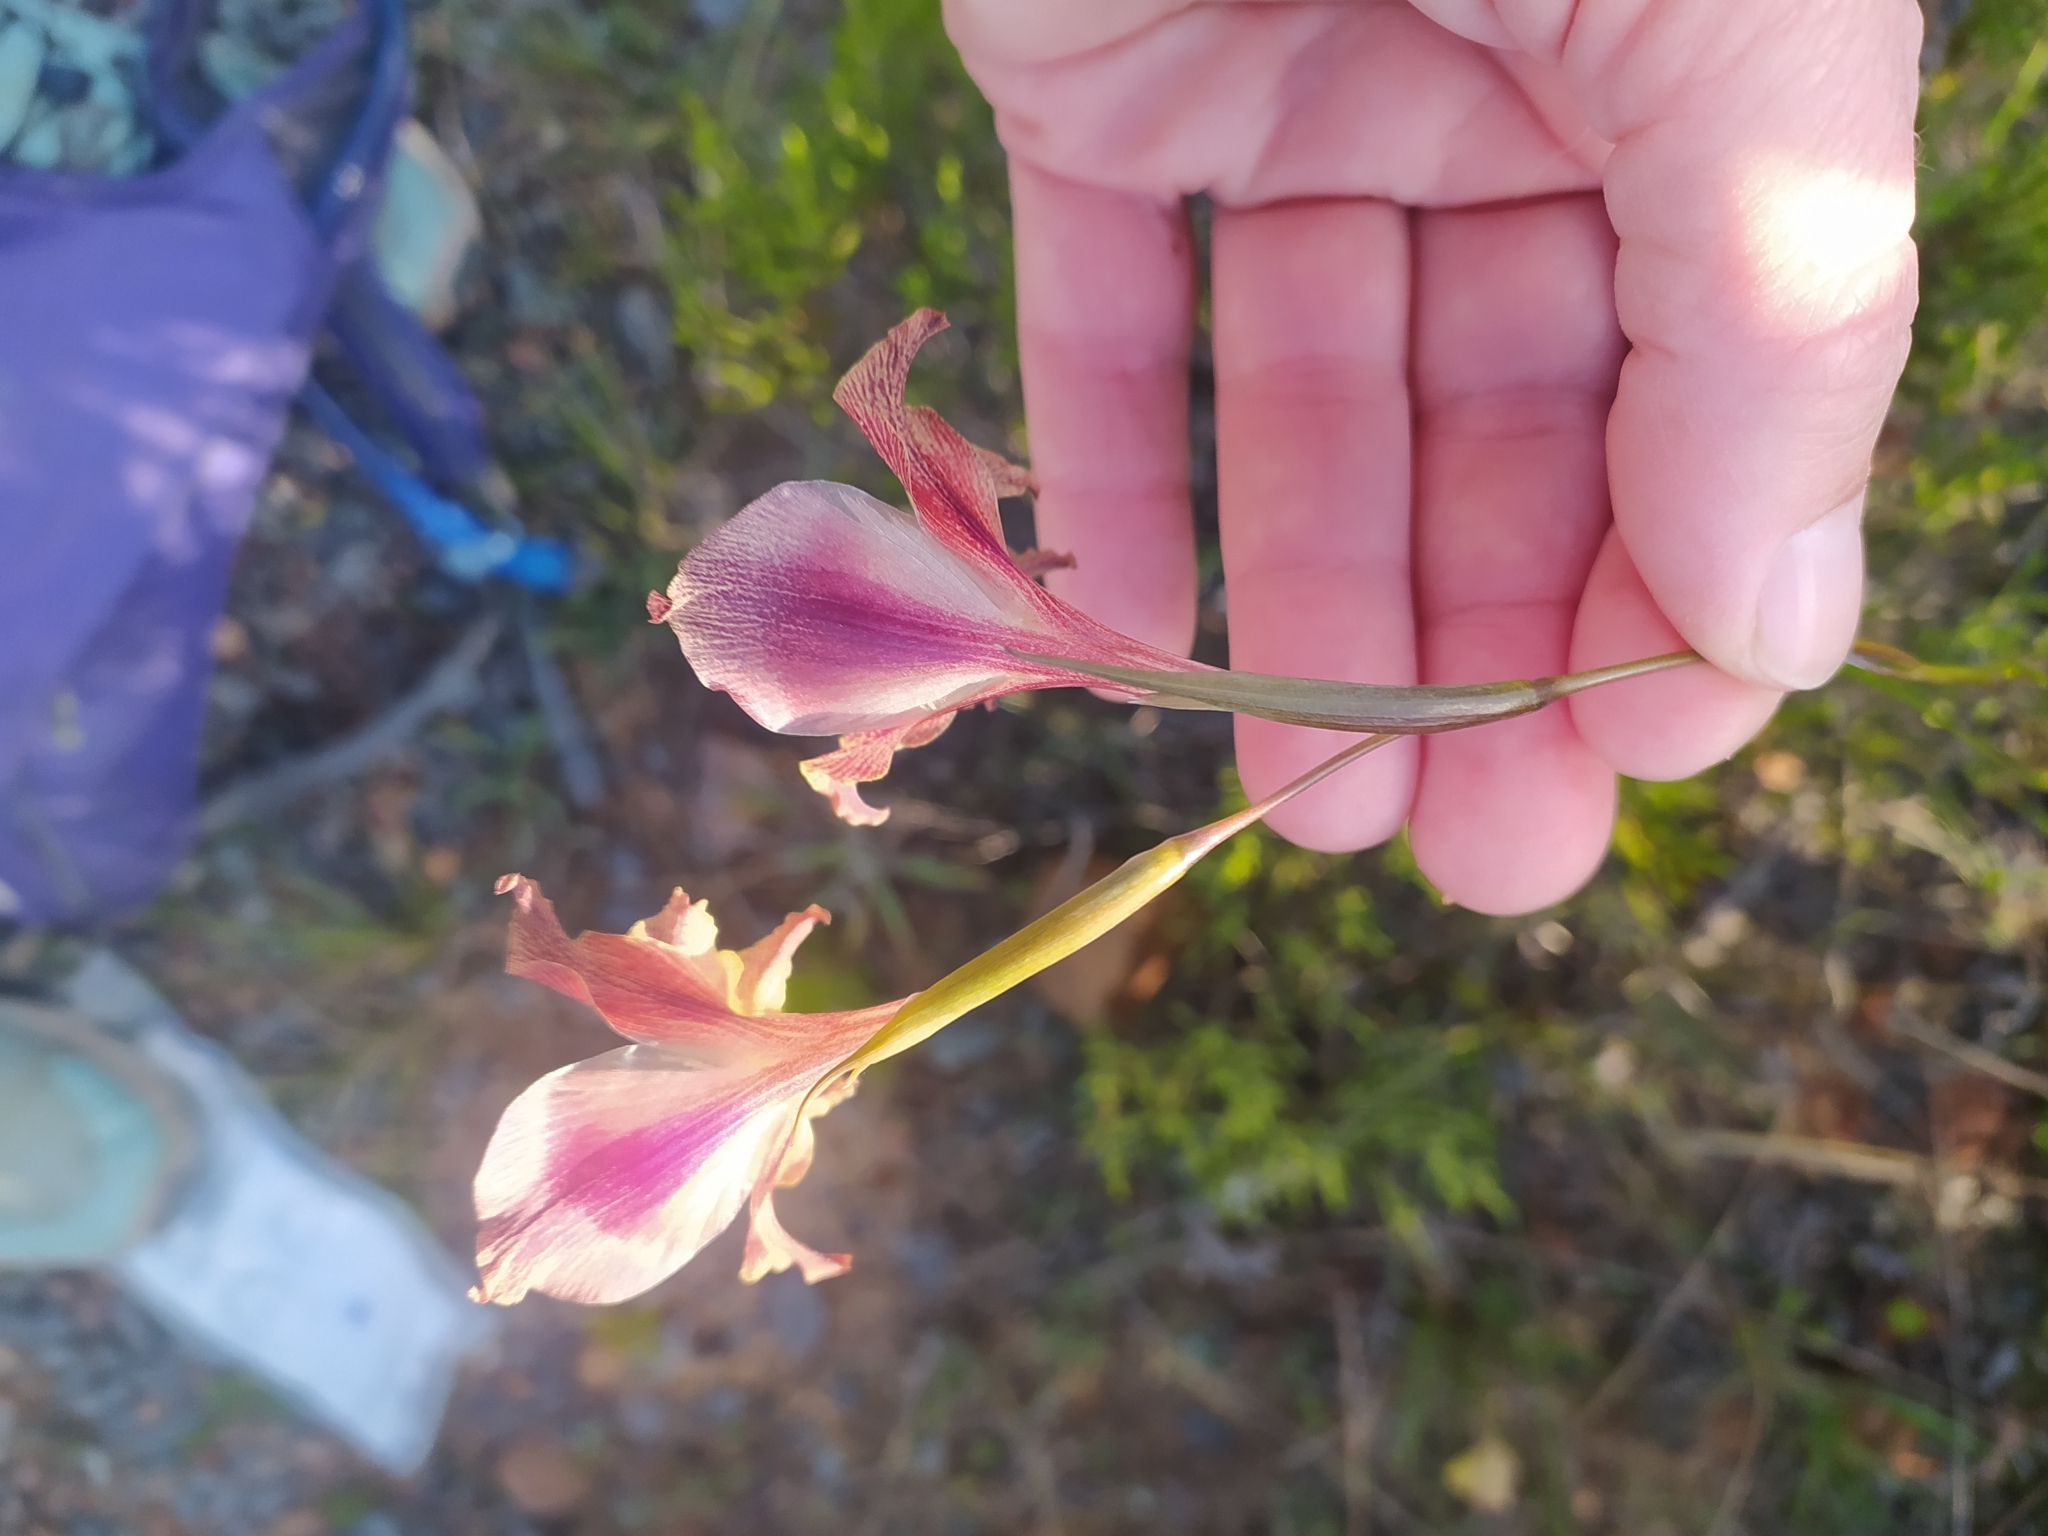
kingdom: Plantae
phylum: Tracheophyta
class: Liliopsida
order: Asparagales
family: Iridaceae
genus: Gladiolus
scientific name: Gladiolus maculatus
